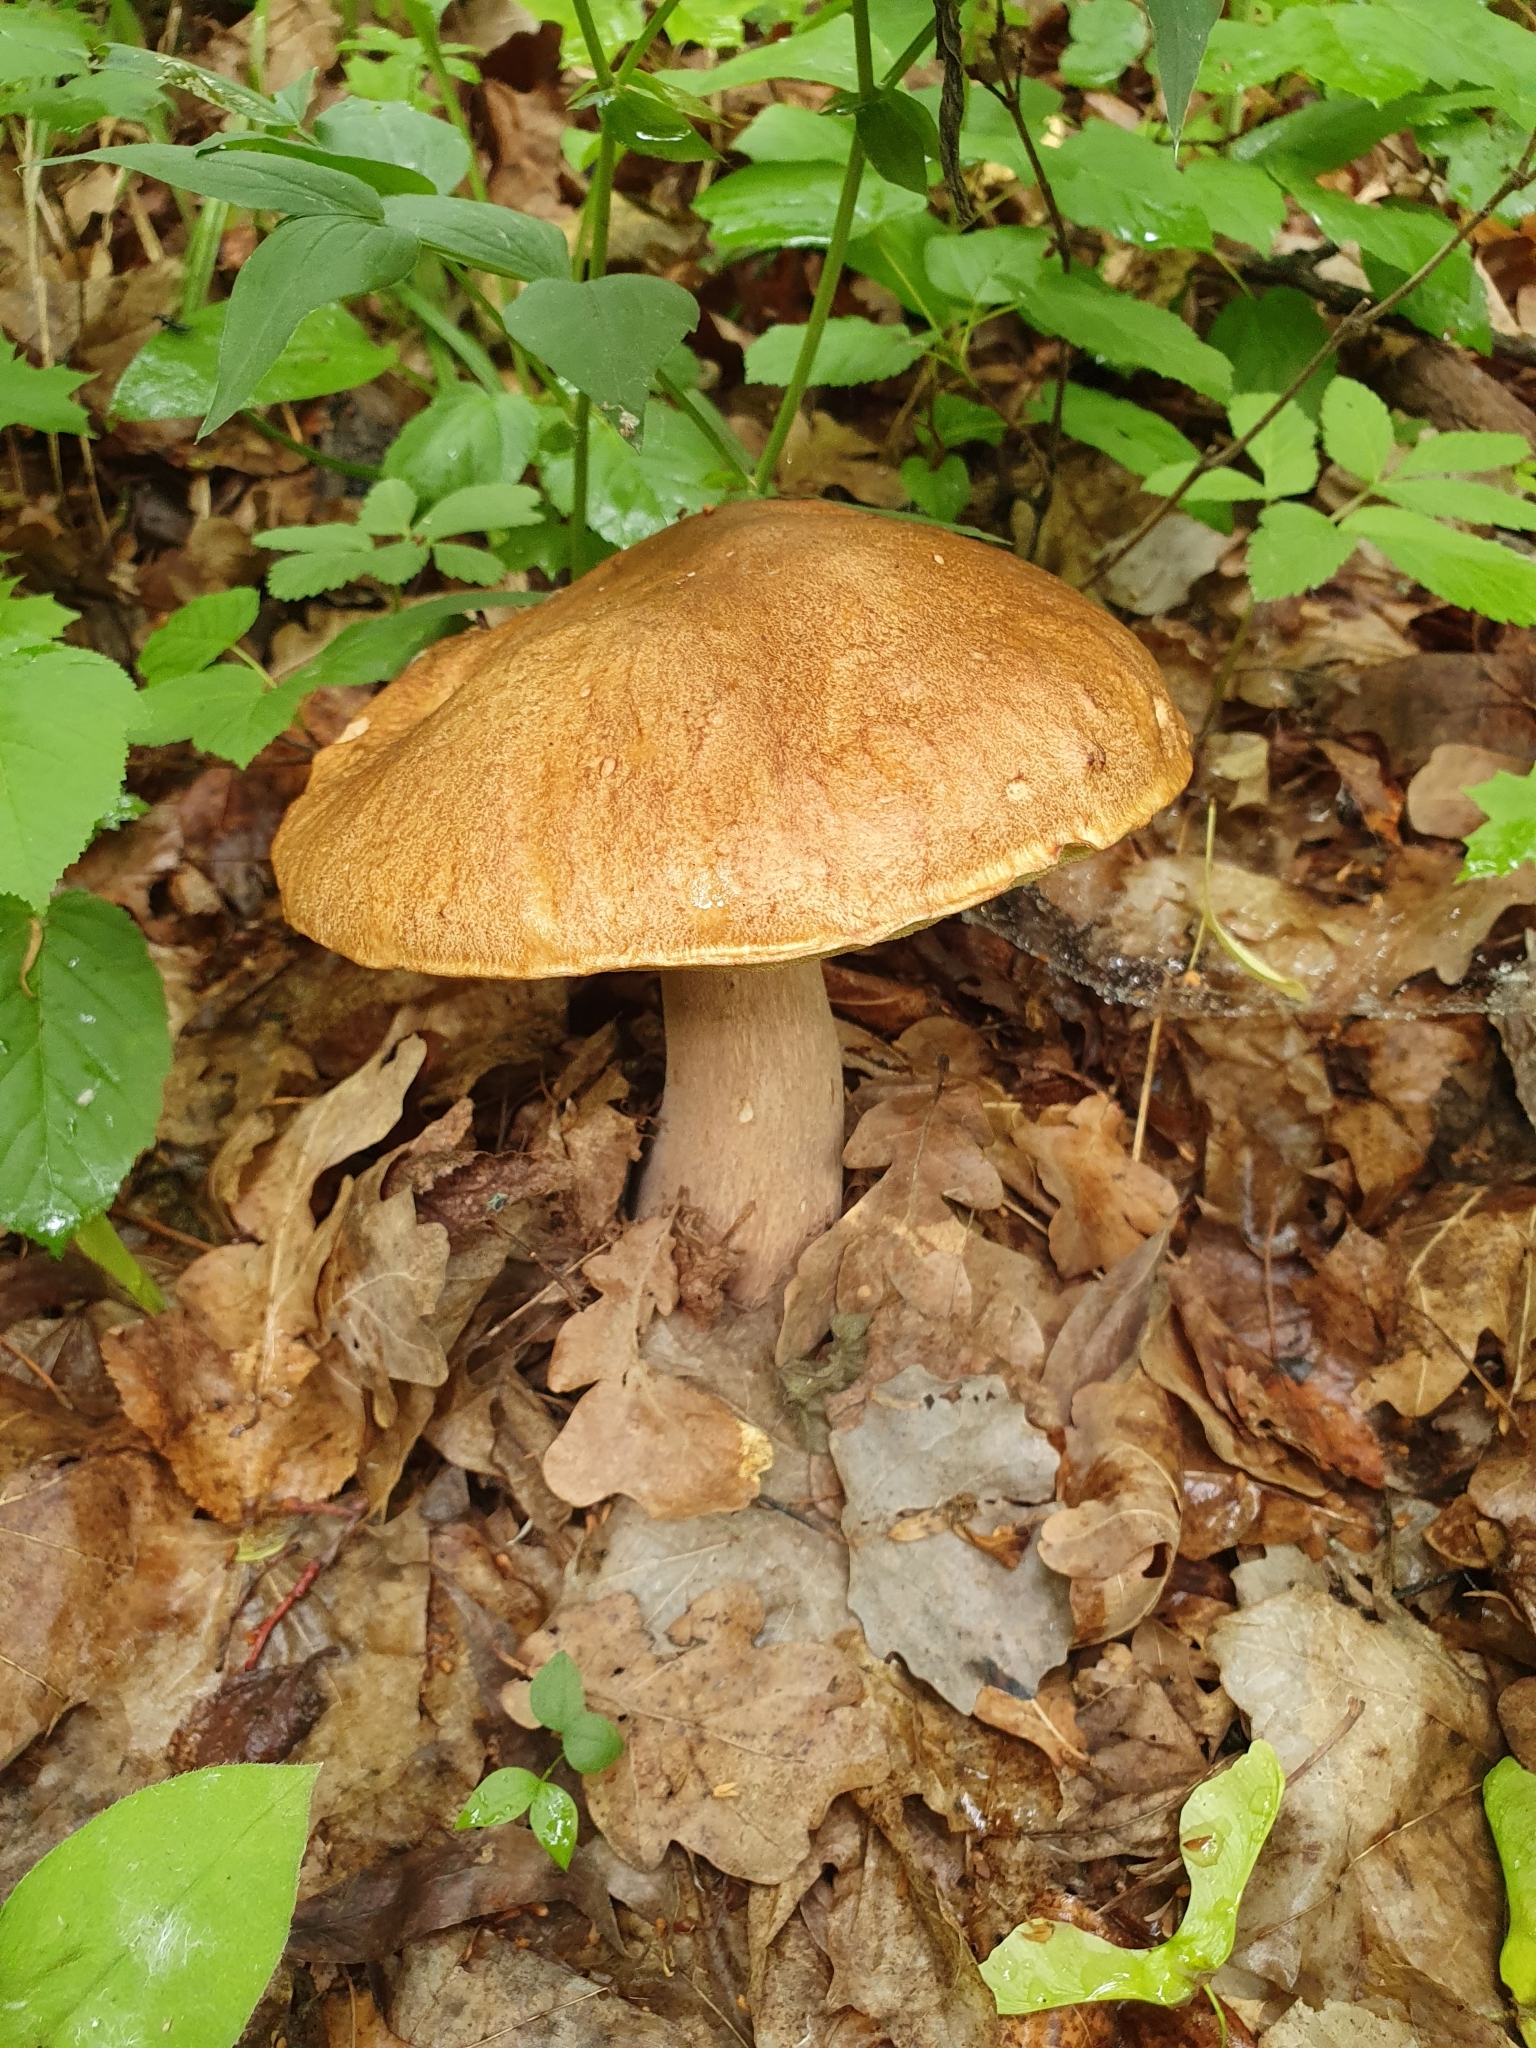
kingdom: Fungi
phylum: Basidiomycota
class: Agaricomycetes
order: Boletales
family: Boletaceae
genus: Boletus
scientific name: Boletus reticulatus
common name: Summer bolete
